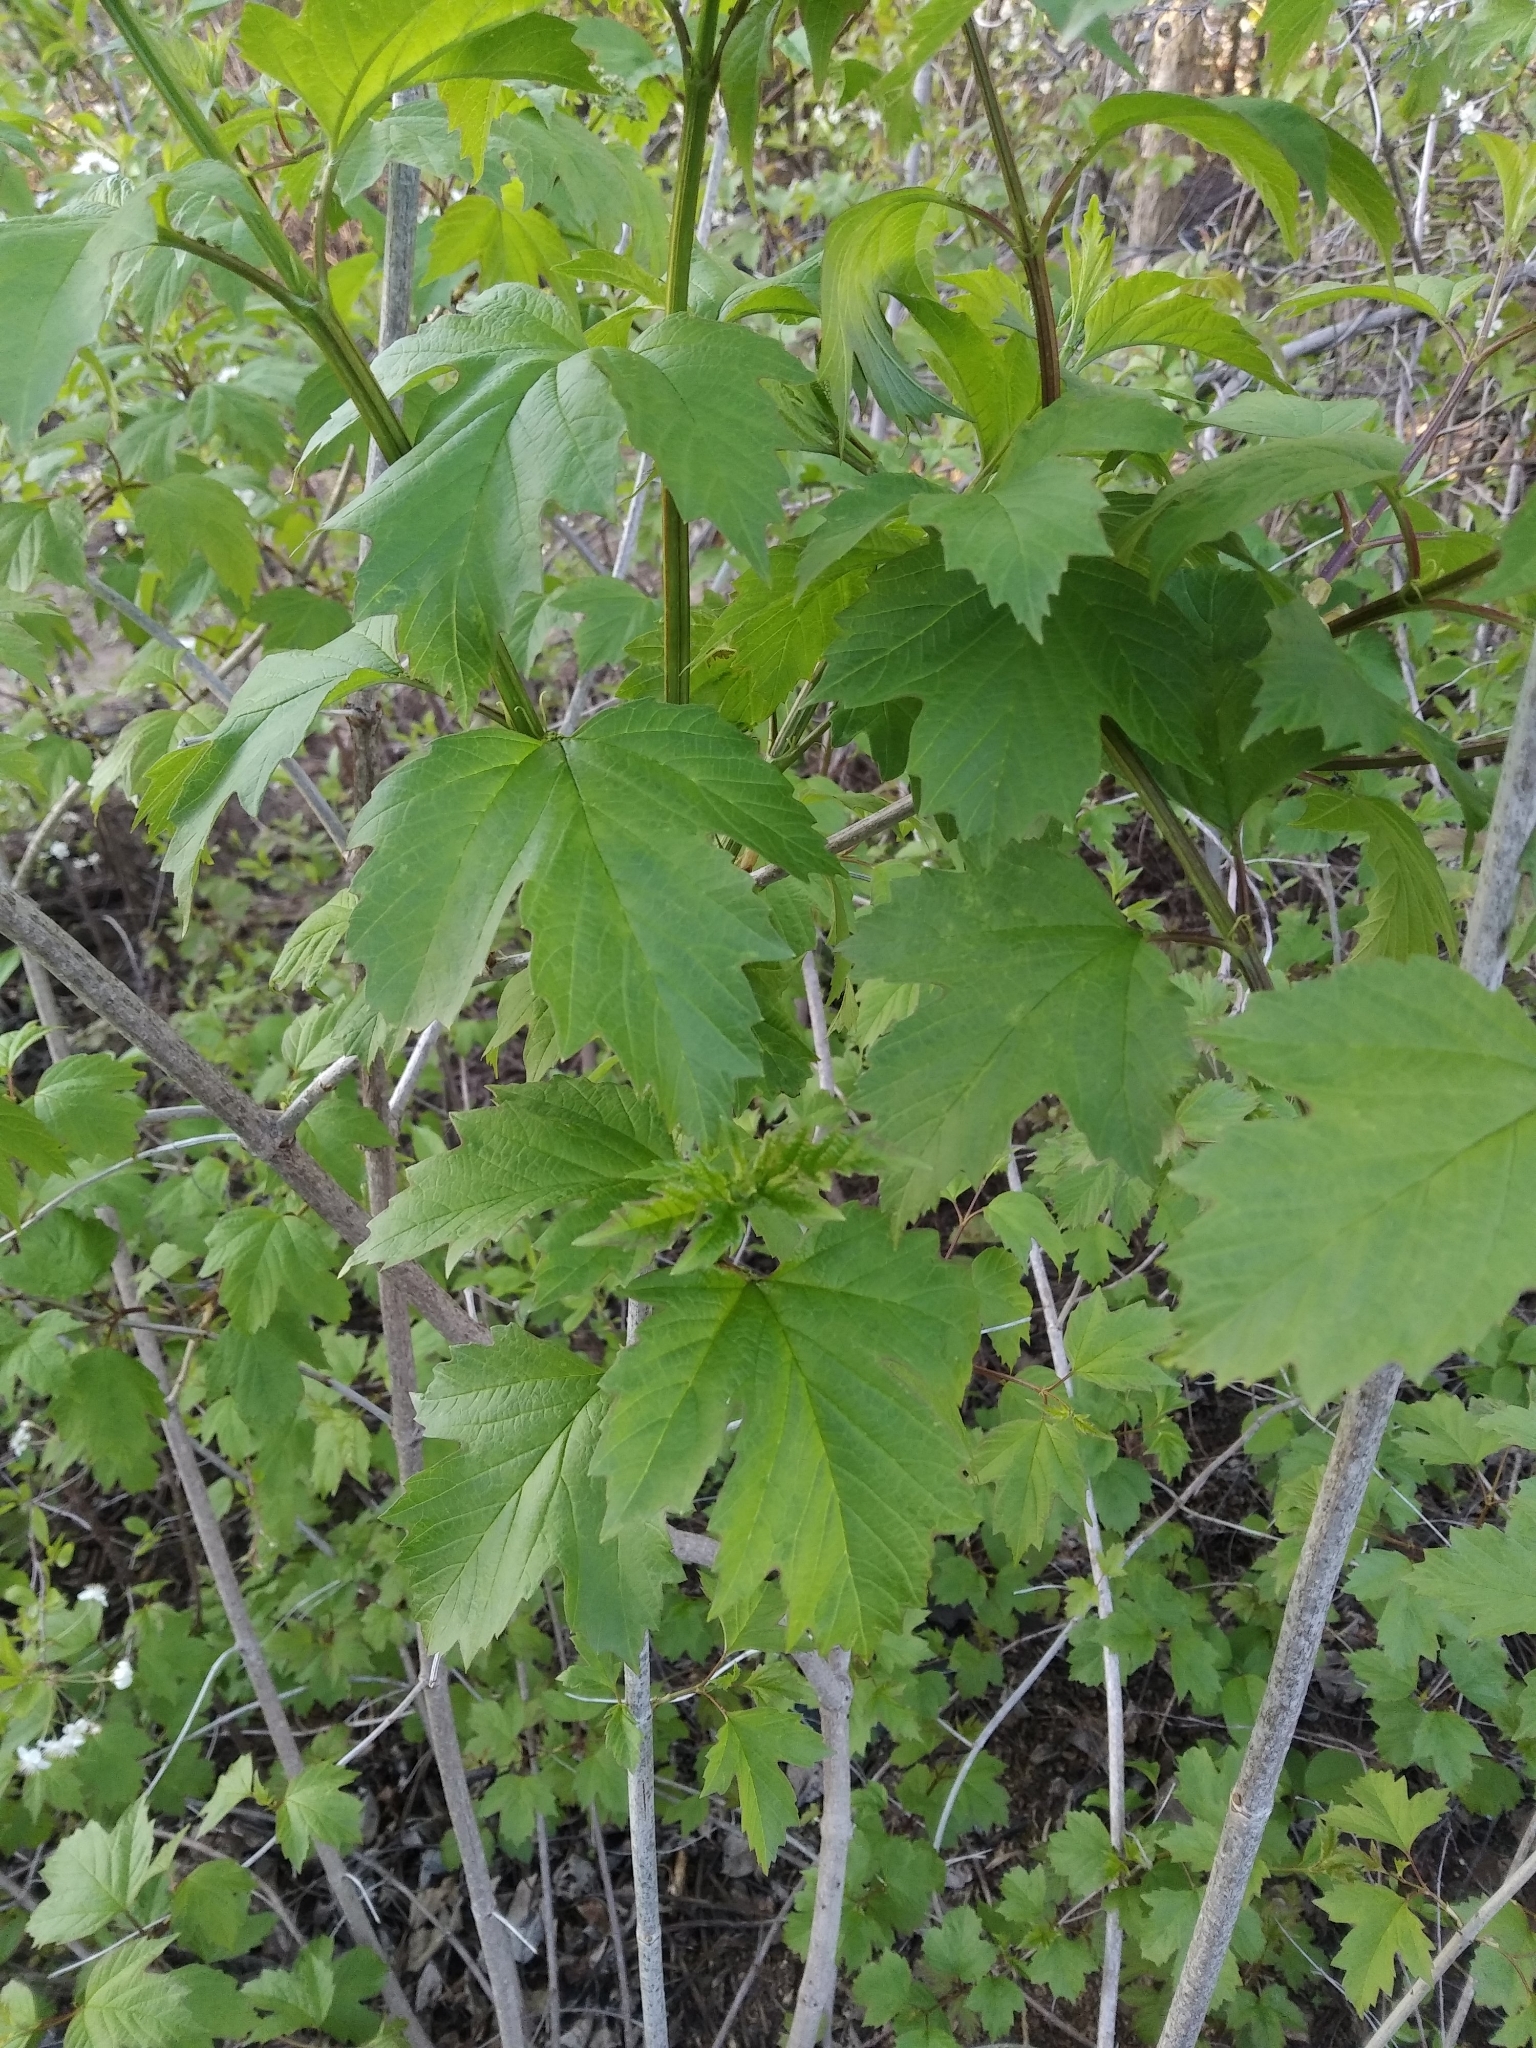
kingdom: Plantae
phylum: Tracheophyta
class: Magnoliopsida
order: Dipsacales
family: Viburnaceae
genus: Viburnum
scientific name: Viburnum opulus
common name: Guelder-rose
